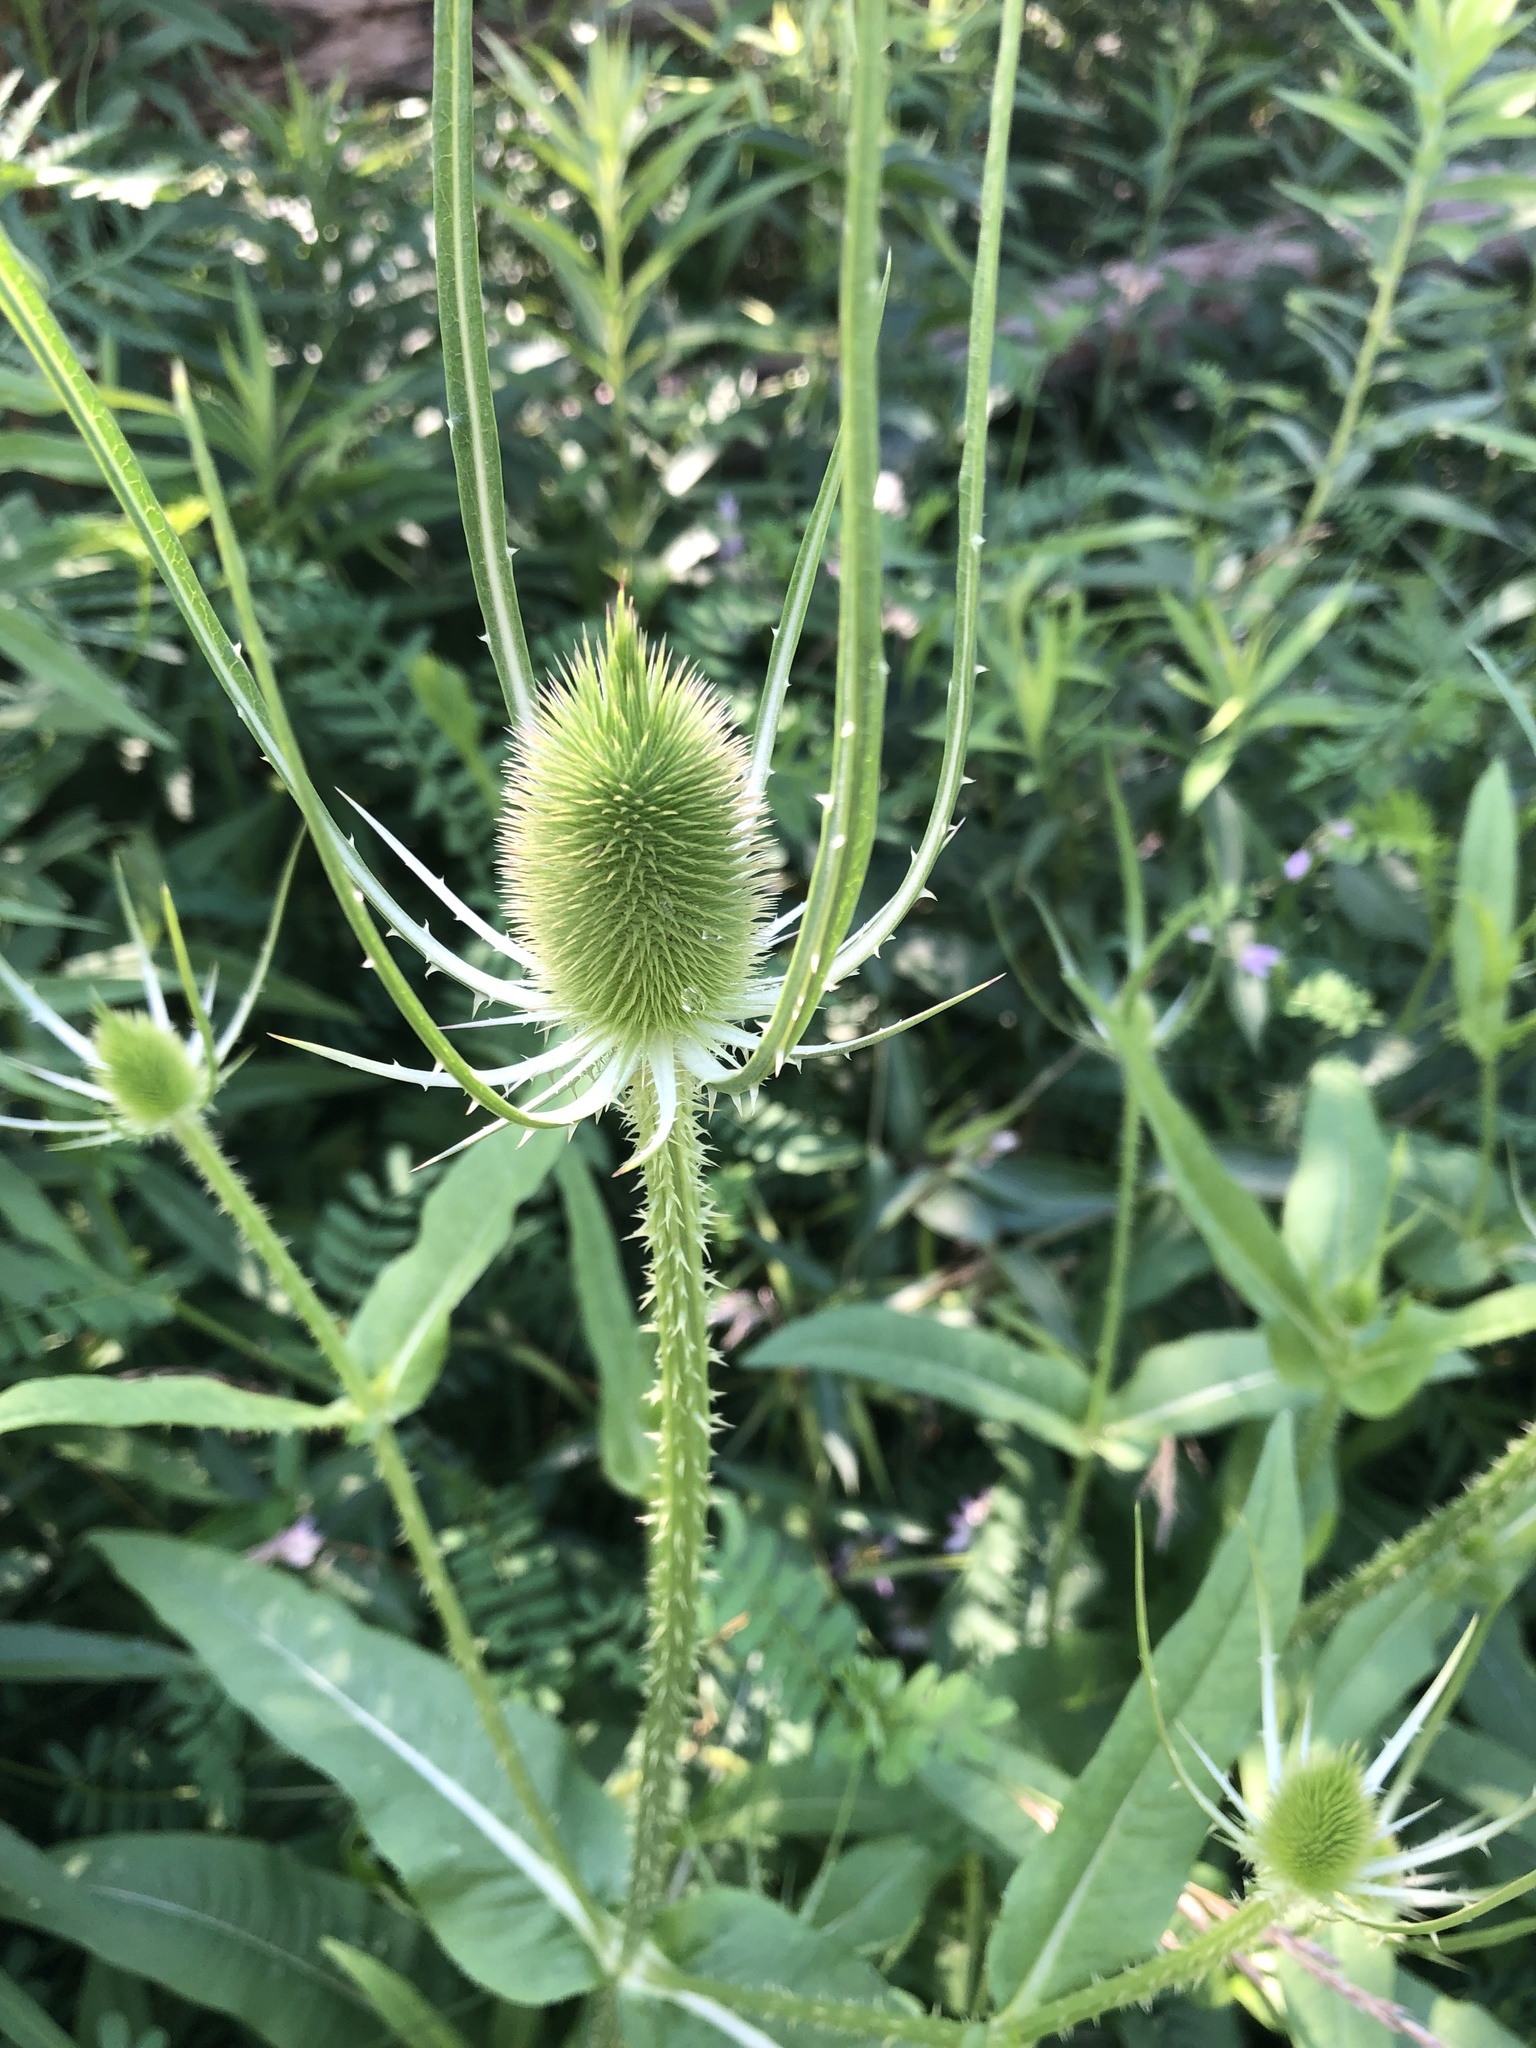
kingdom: Plantae
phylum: Tracheophyta
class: Magnoliopsida
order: Dipsacales
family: Caprifoliaceae
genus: Dipsacus
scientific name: Dipsacus fullonum
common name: Teasel
